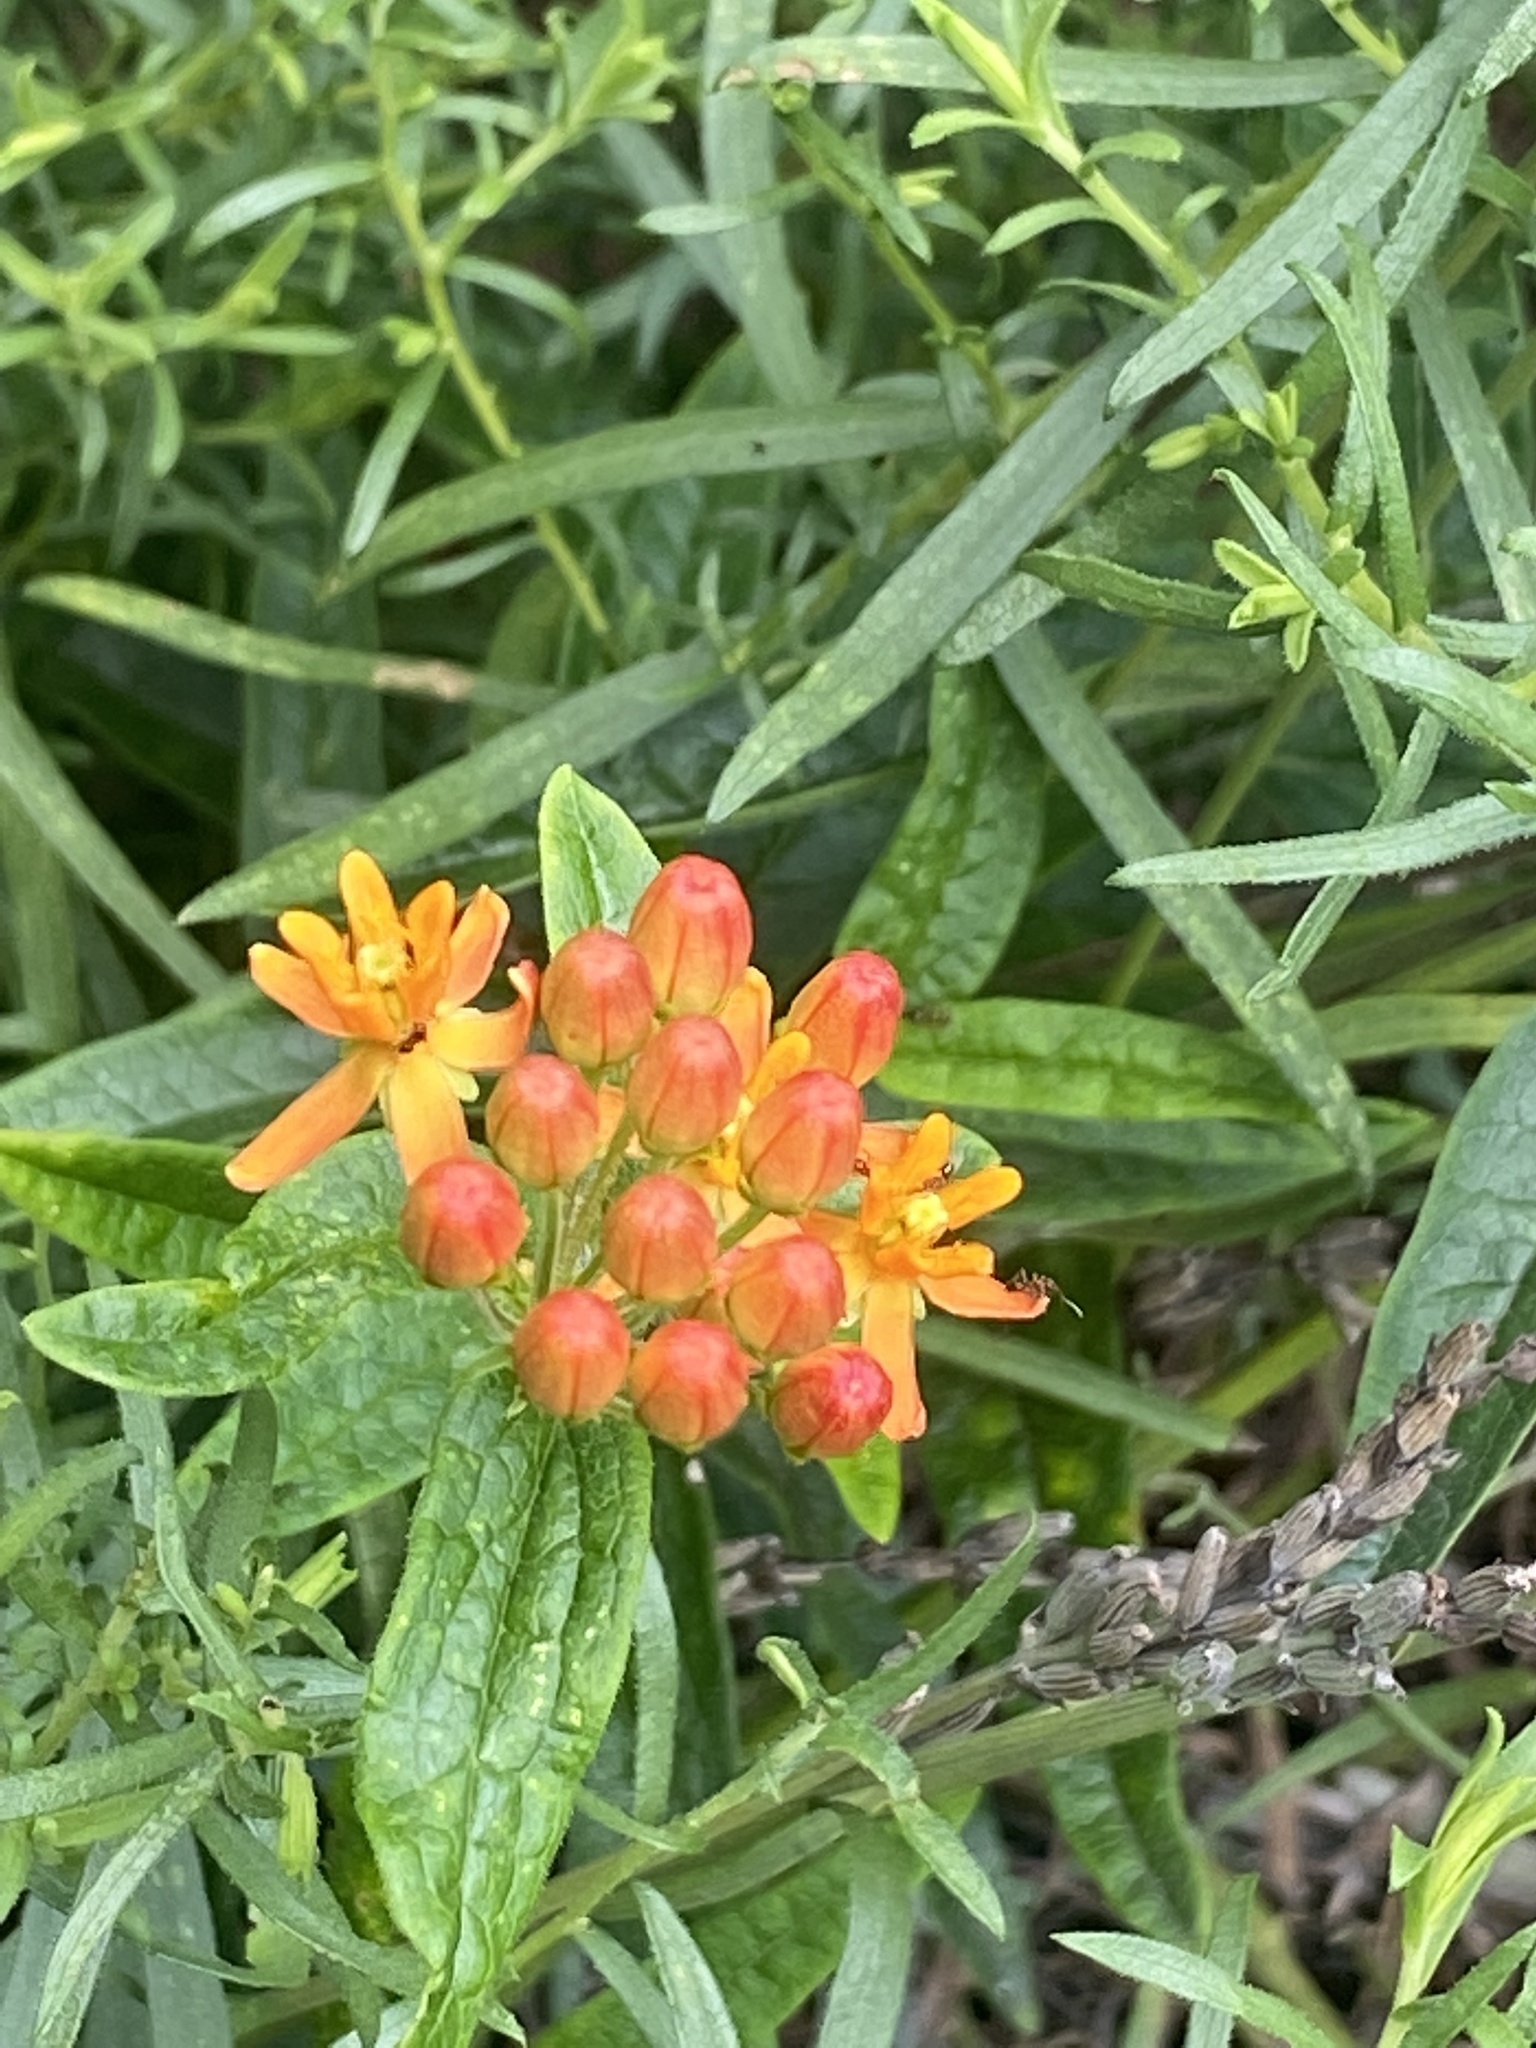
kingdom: Plantae
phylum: Tracheophyta
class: Magnoliopsida
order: Gentianales
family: Apocynaceae
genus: Asclepias
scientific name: Asclepias tuberosa
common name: Butterfly milkweed
